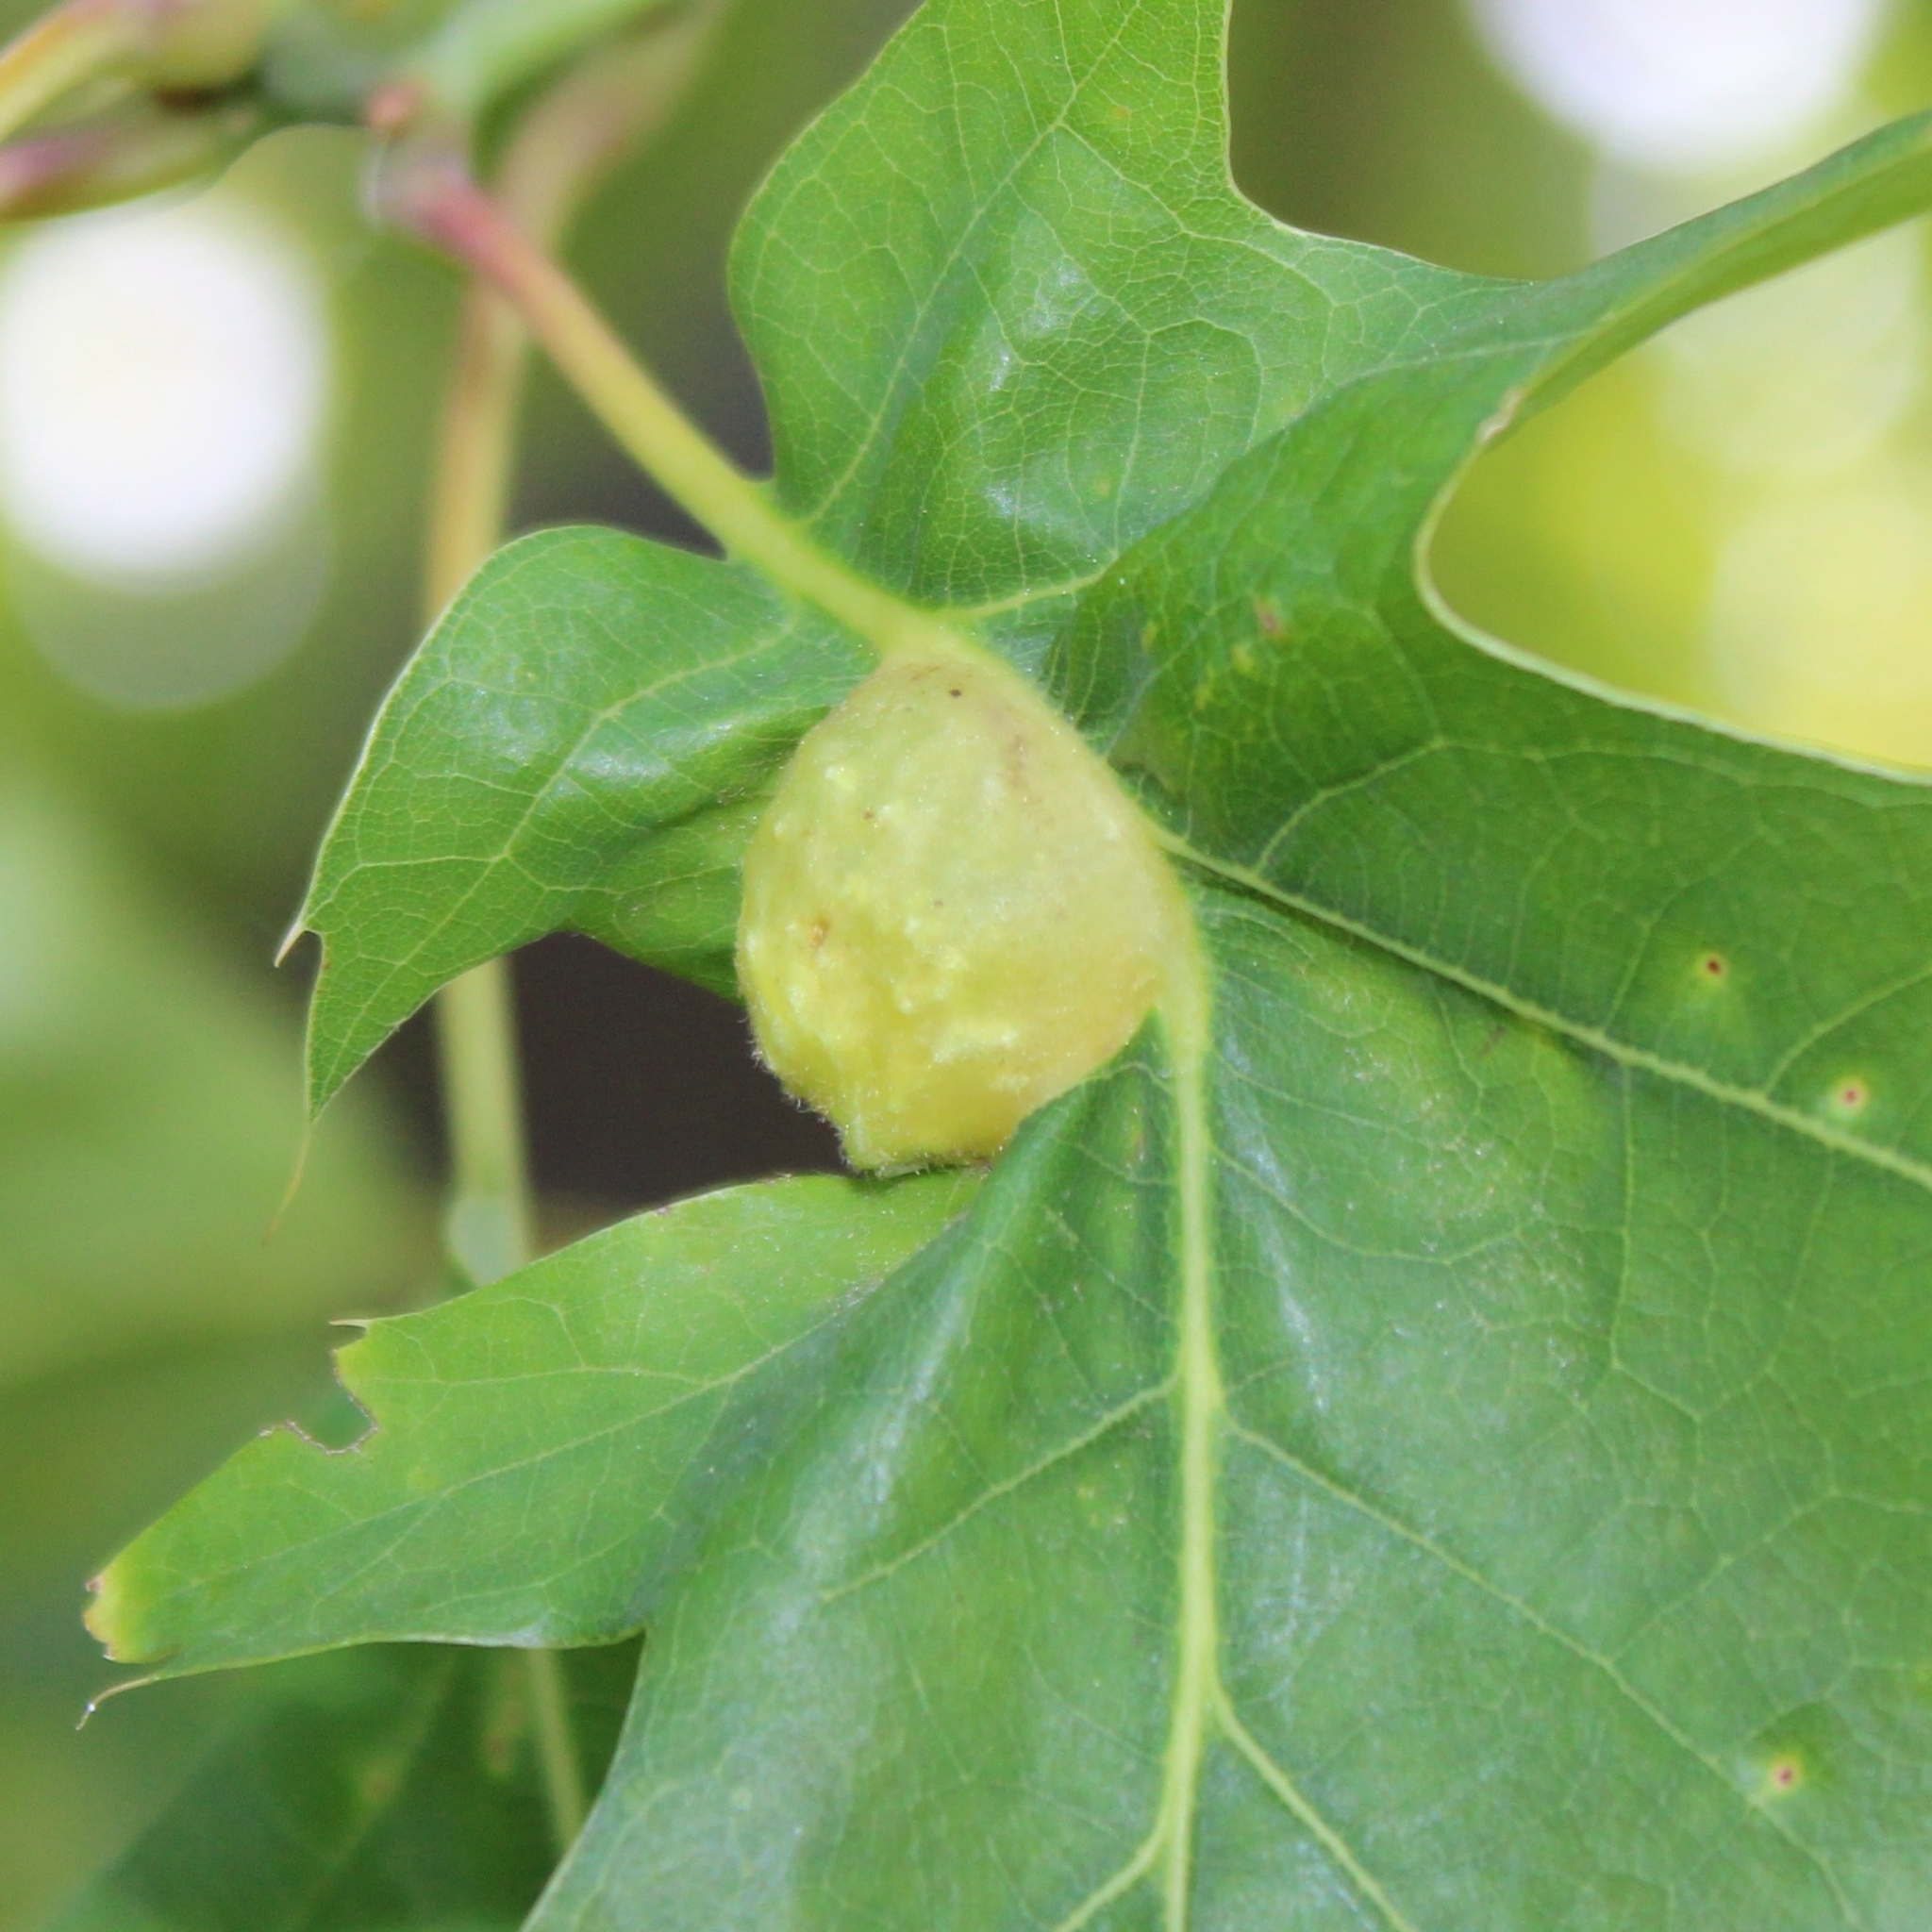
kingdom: Animalia
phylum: Arthropoda
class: Insecta
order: Hymenoptera
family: Cynipidae
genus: Dryocosmus
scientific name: Dryocosmus quercuspalustris
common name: Succulent oak gall wasp
